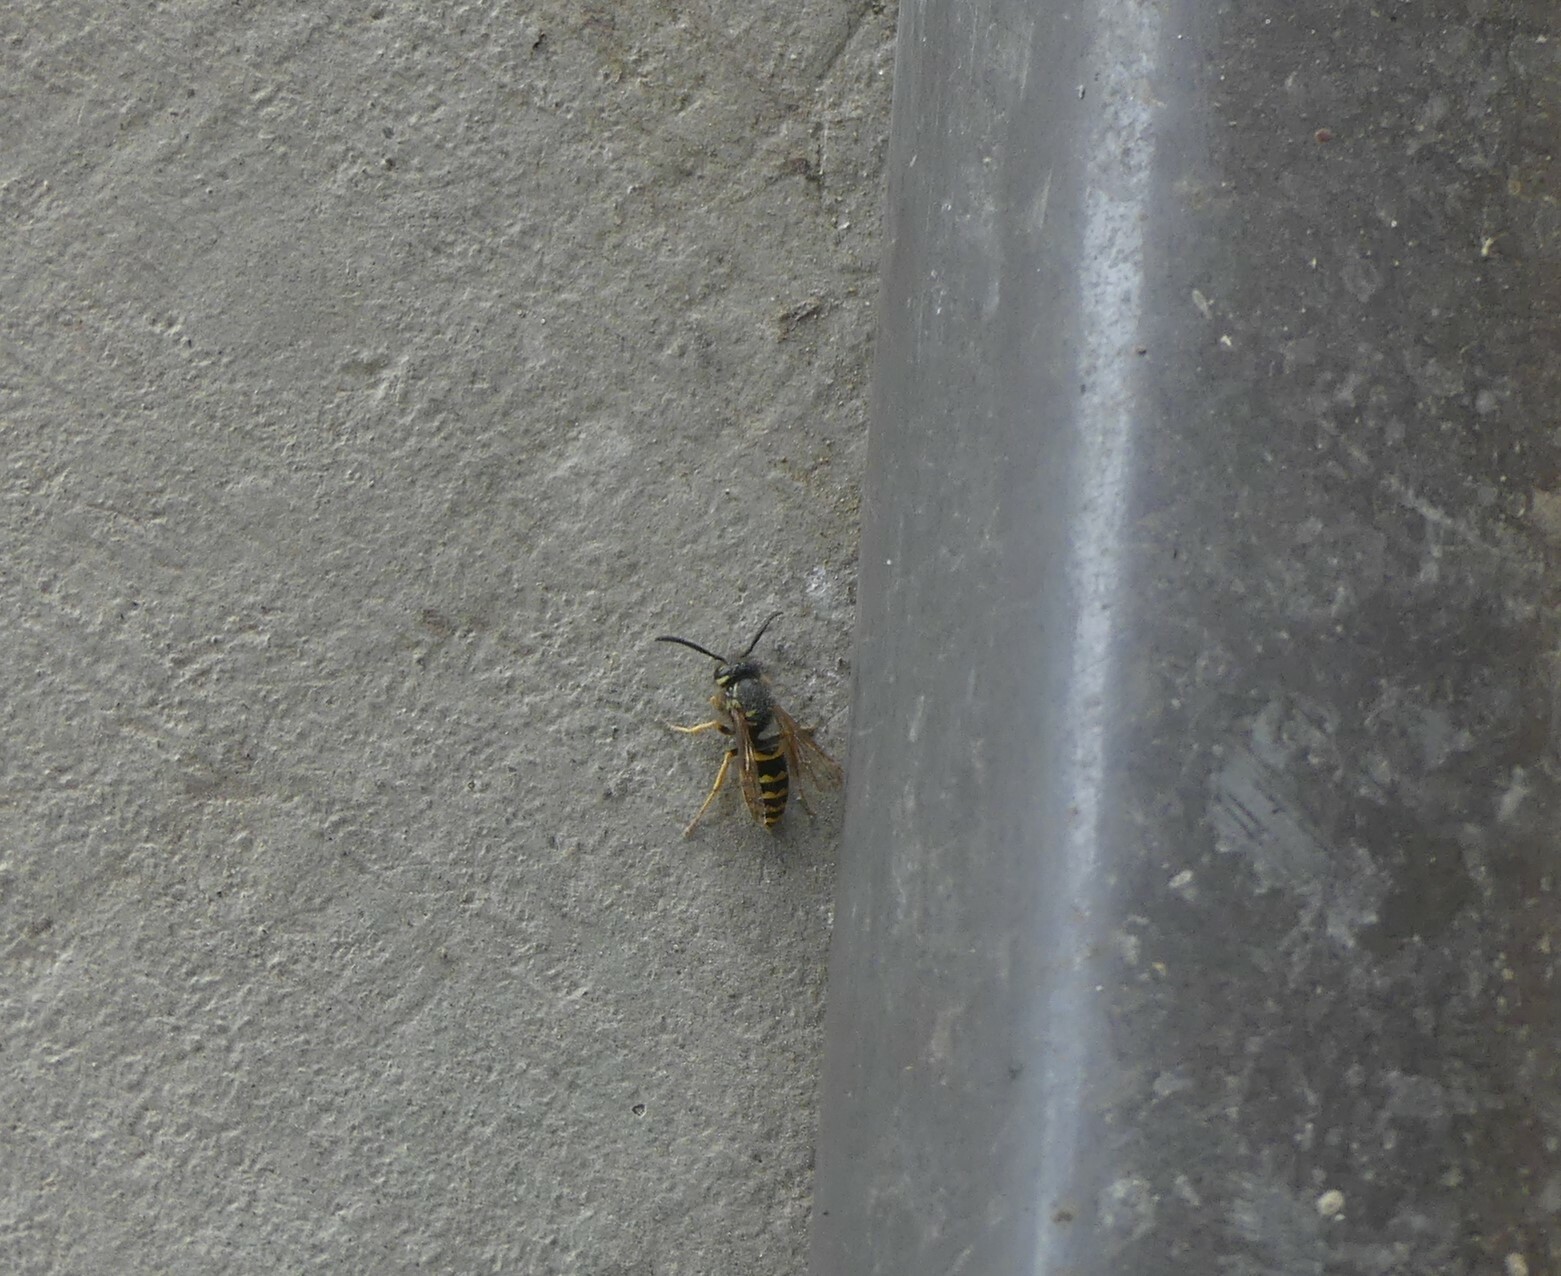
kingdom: Animalia
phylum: Arthropoda
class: Insecta
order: Hymenoptera
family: Vespidae
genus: Vespula
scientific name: Vespula alascensis
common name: Alaska yellowjacket
